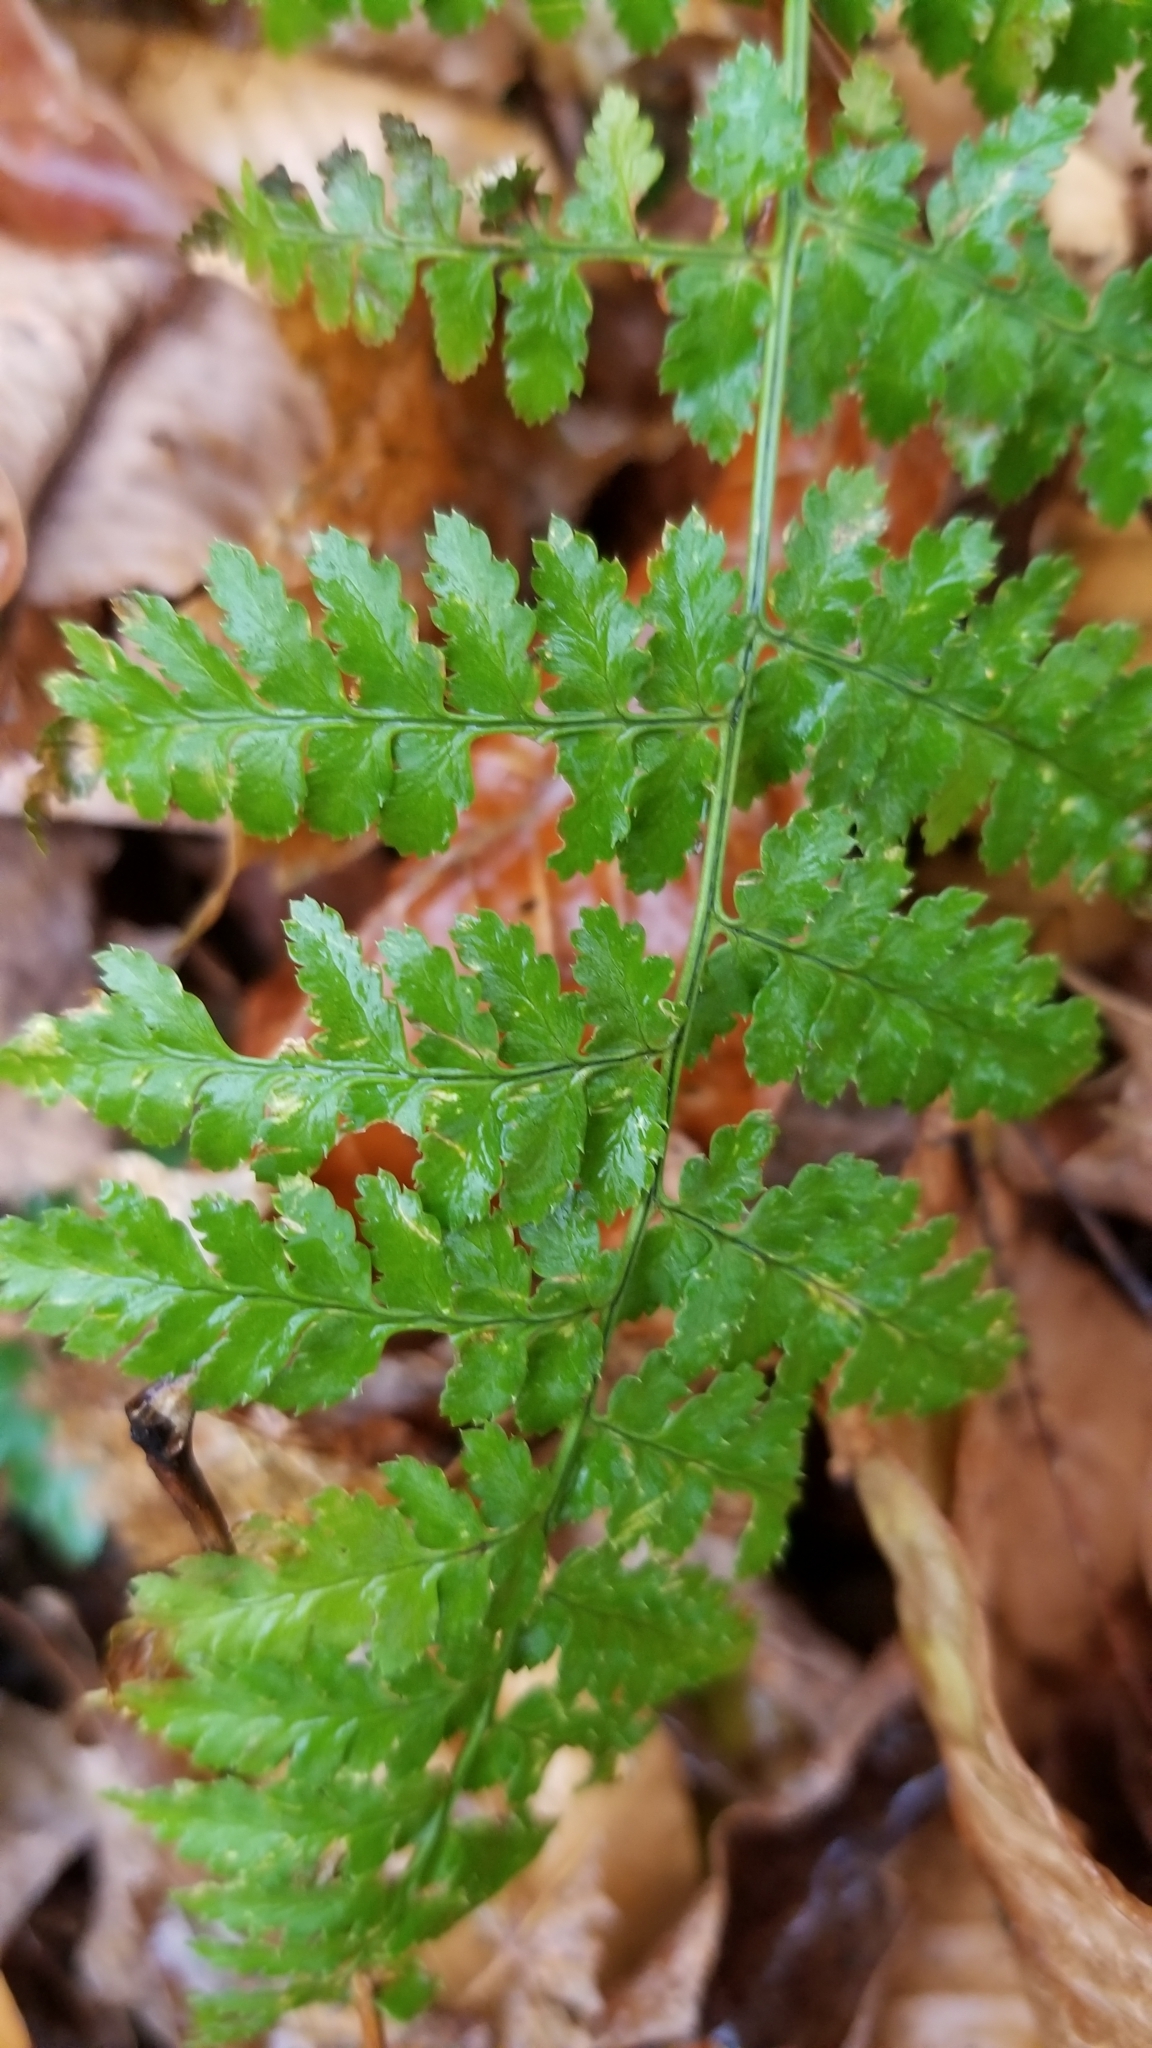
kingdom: Plantae
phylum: Tracheophyta
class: Polypodiopsida
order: Polypodiales
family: Dryopteridaceae
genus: Dryopteris
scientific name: Dryopteris intermedia
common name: Evergreen wood fern
